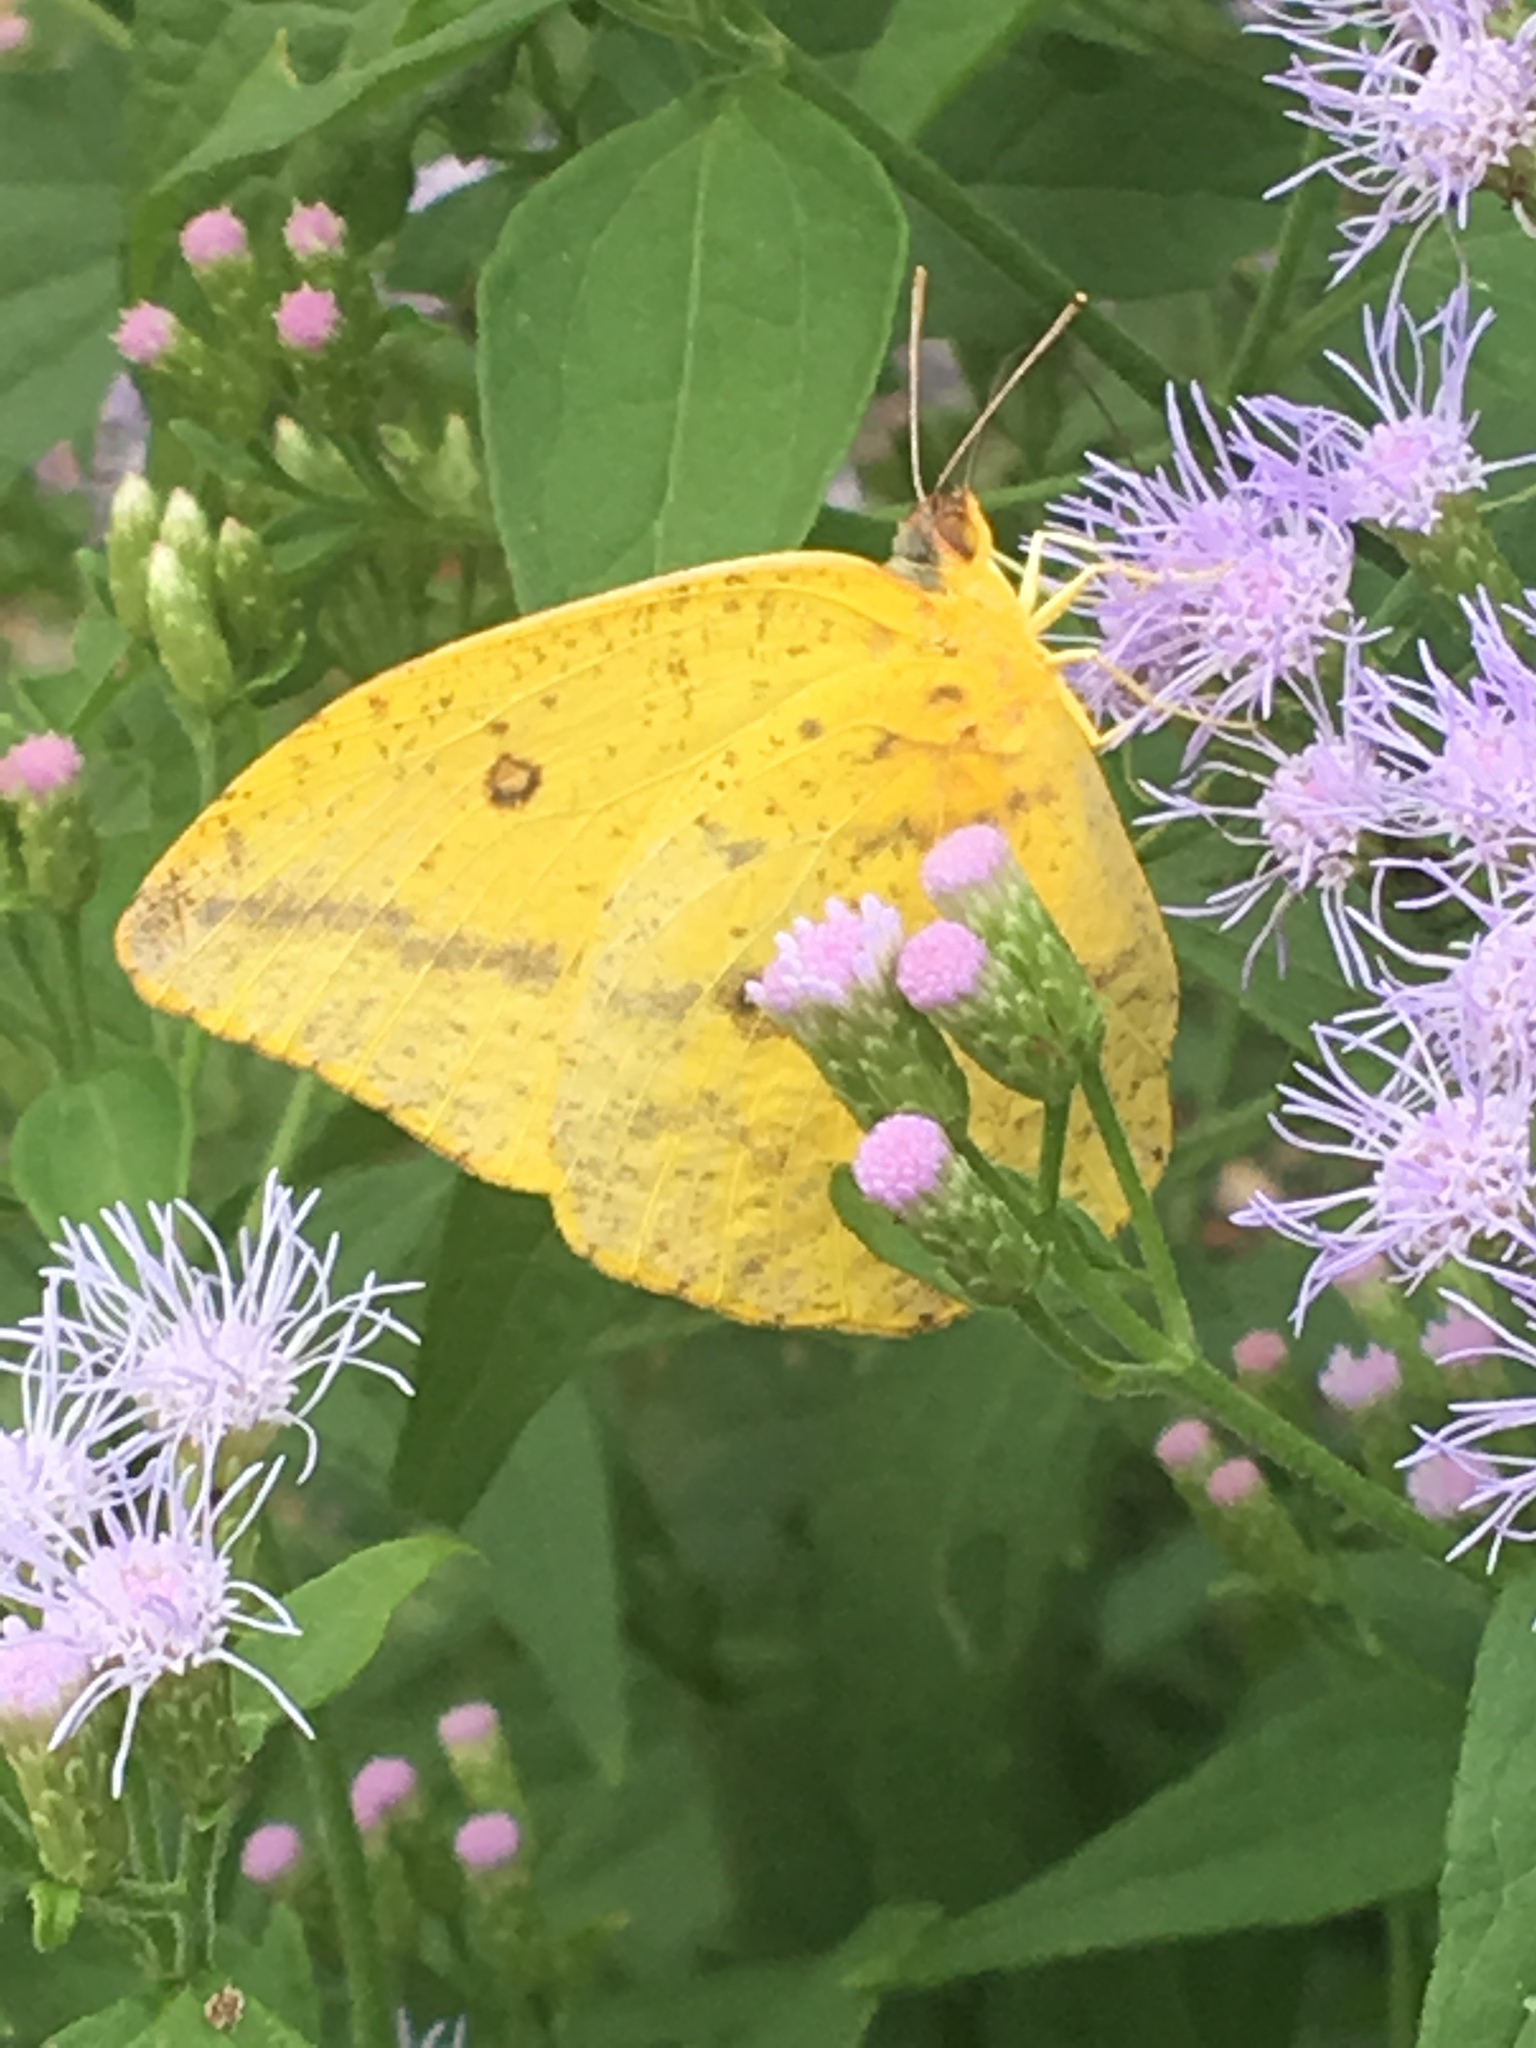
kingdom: Animalia
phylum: Arthropoda
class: Insecta
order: Lepidoptera
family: Pieridae
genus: Phoebis
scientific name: Phoebis agarithe
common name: Large orange sulphur
